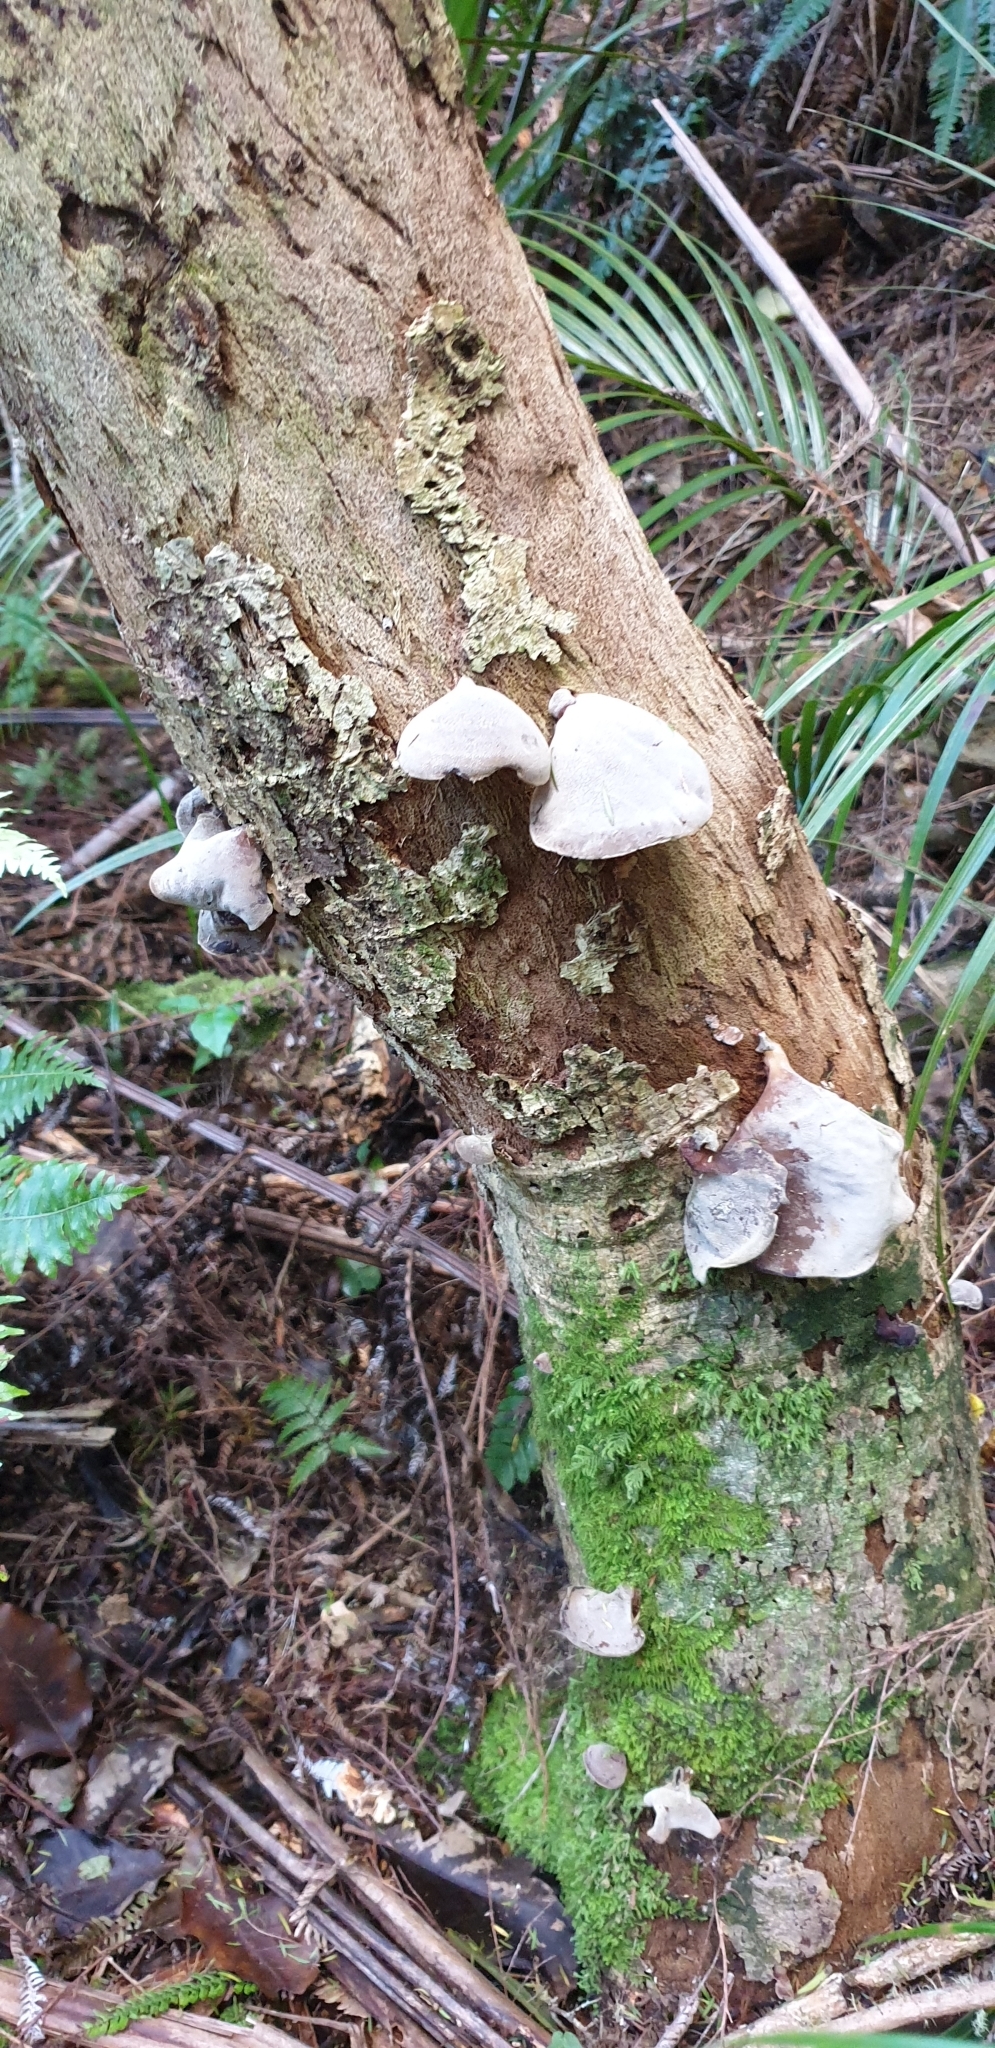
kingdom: Fungi
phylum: Basidiomycota
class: Agaricomycetes
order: Auriculariales
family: Auriculariaceae
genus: Auricularia
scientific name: Auricularia cornea
